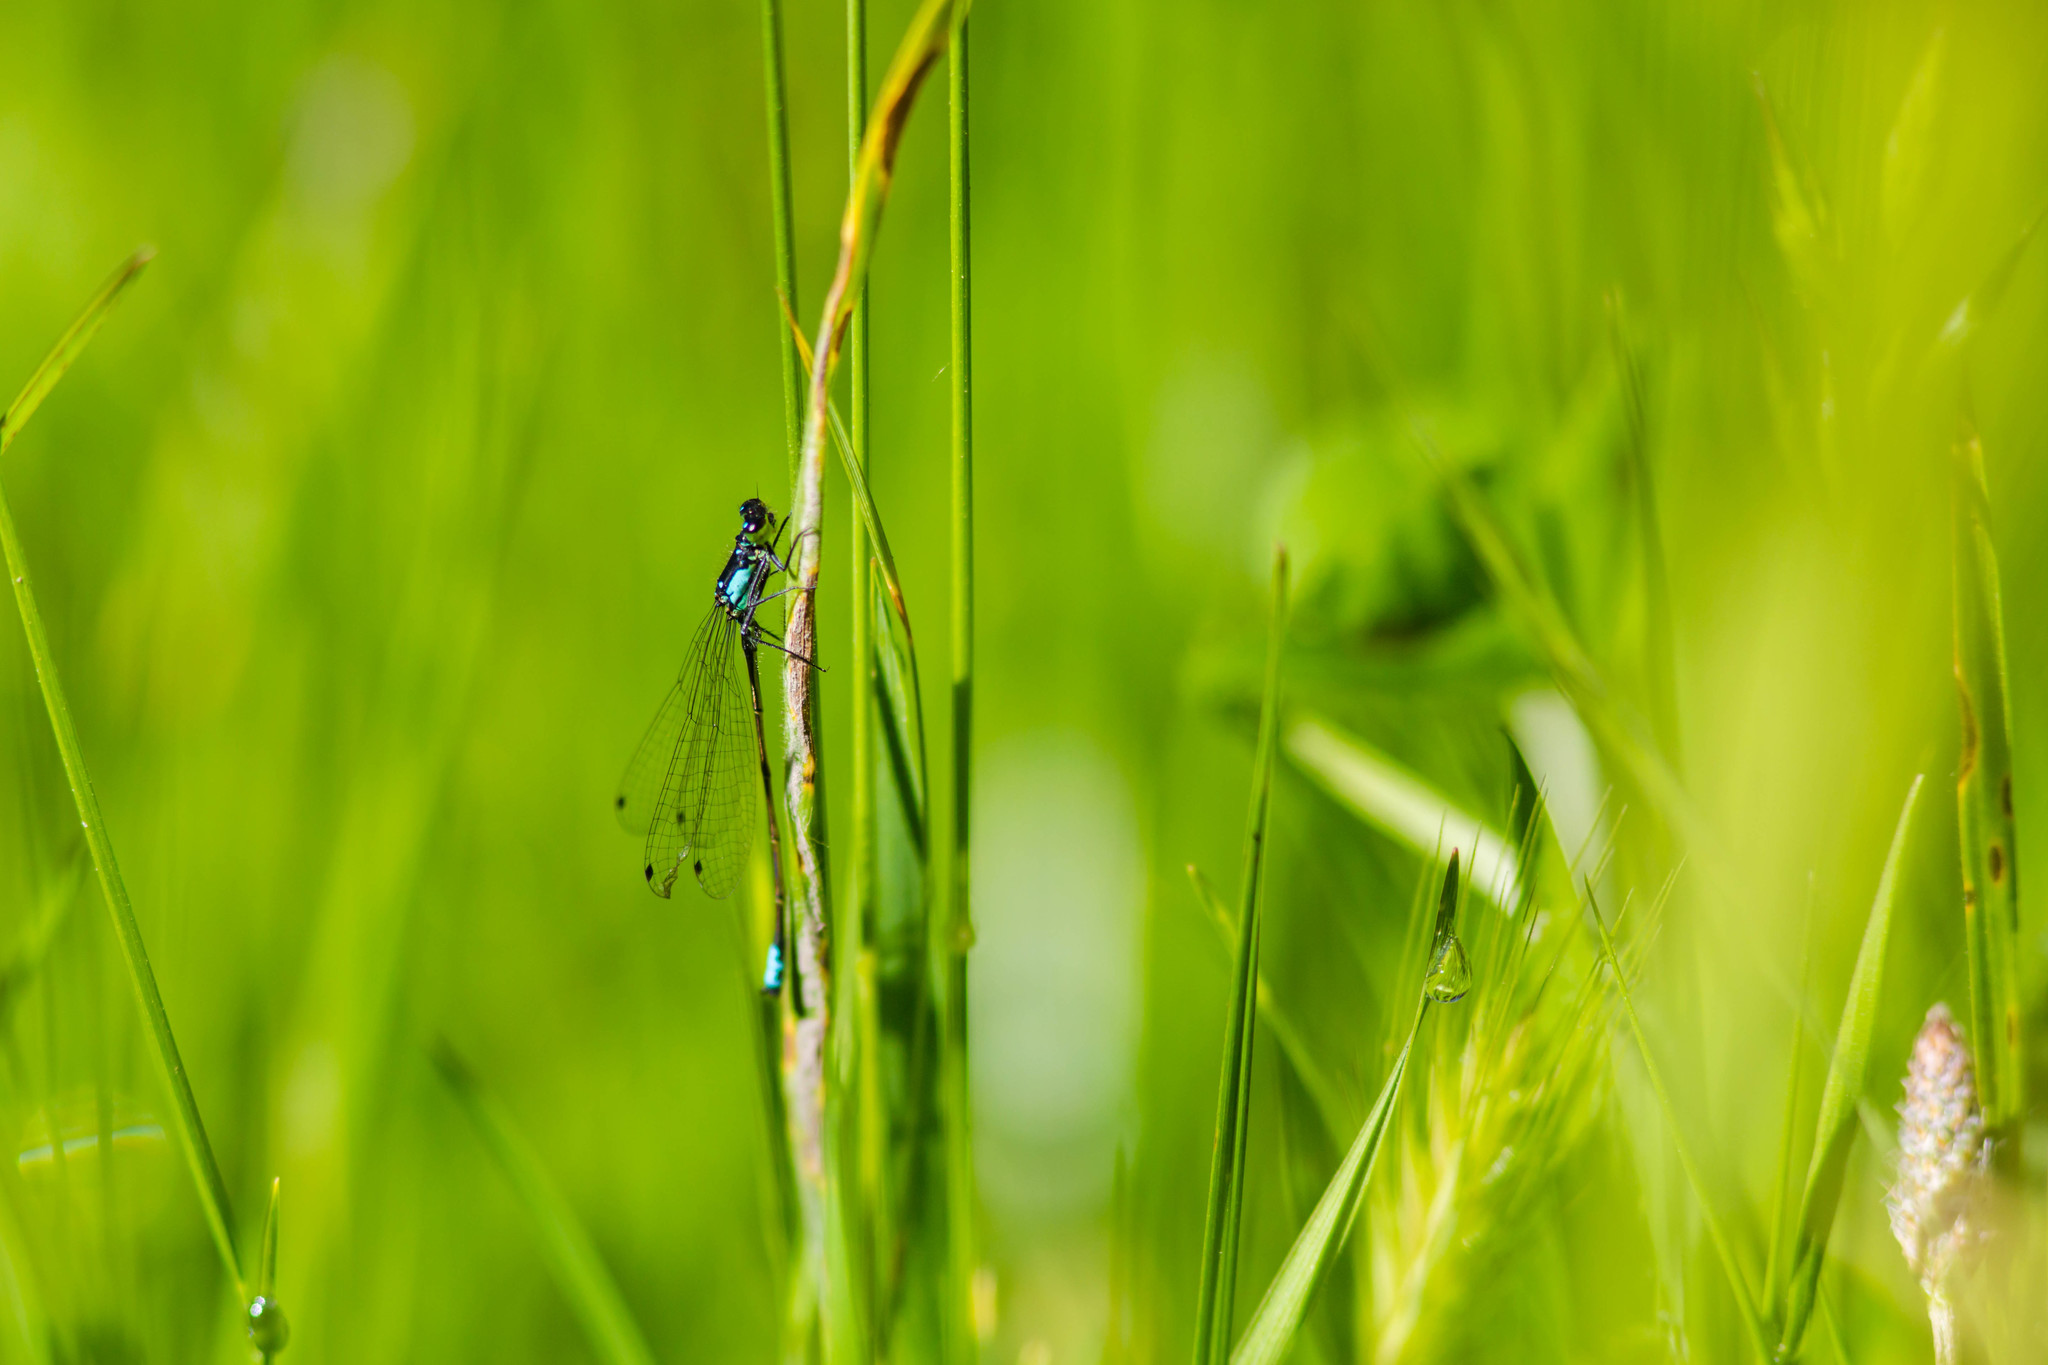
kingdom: Animalia
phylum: Arthropoda
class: Insecta
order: Odonata
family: Coenagrionidae
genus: Ischnura
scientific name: Ischnura cervula
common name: Pacific forktail
